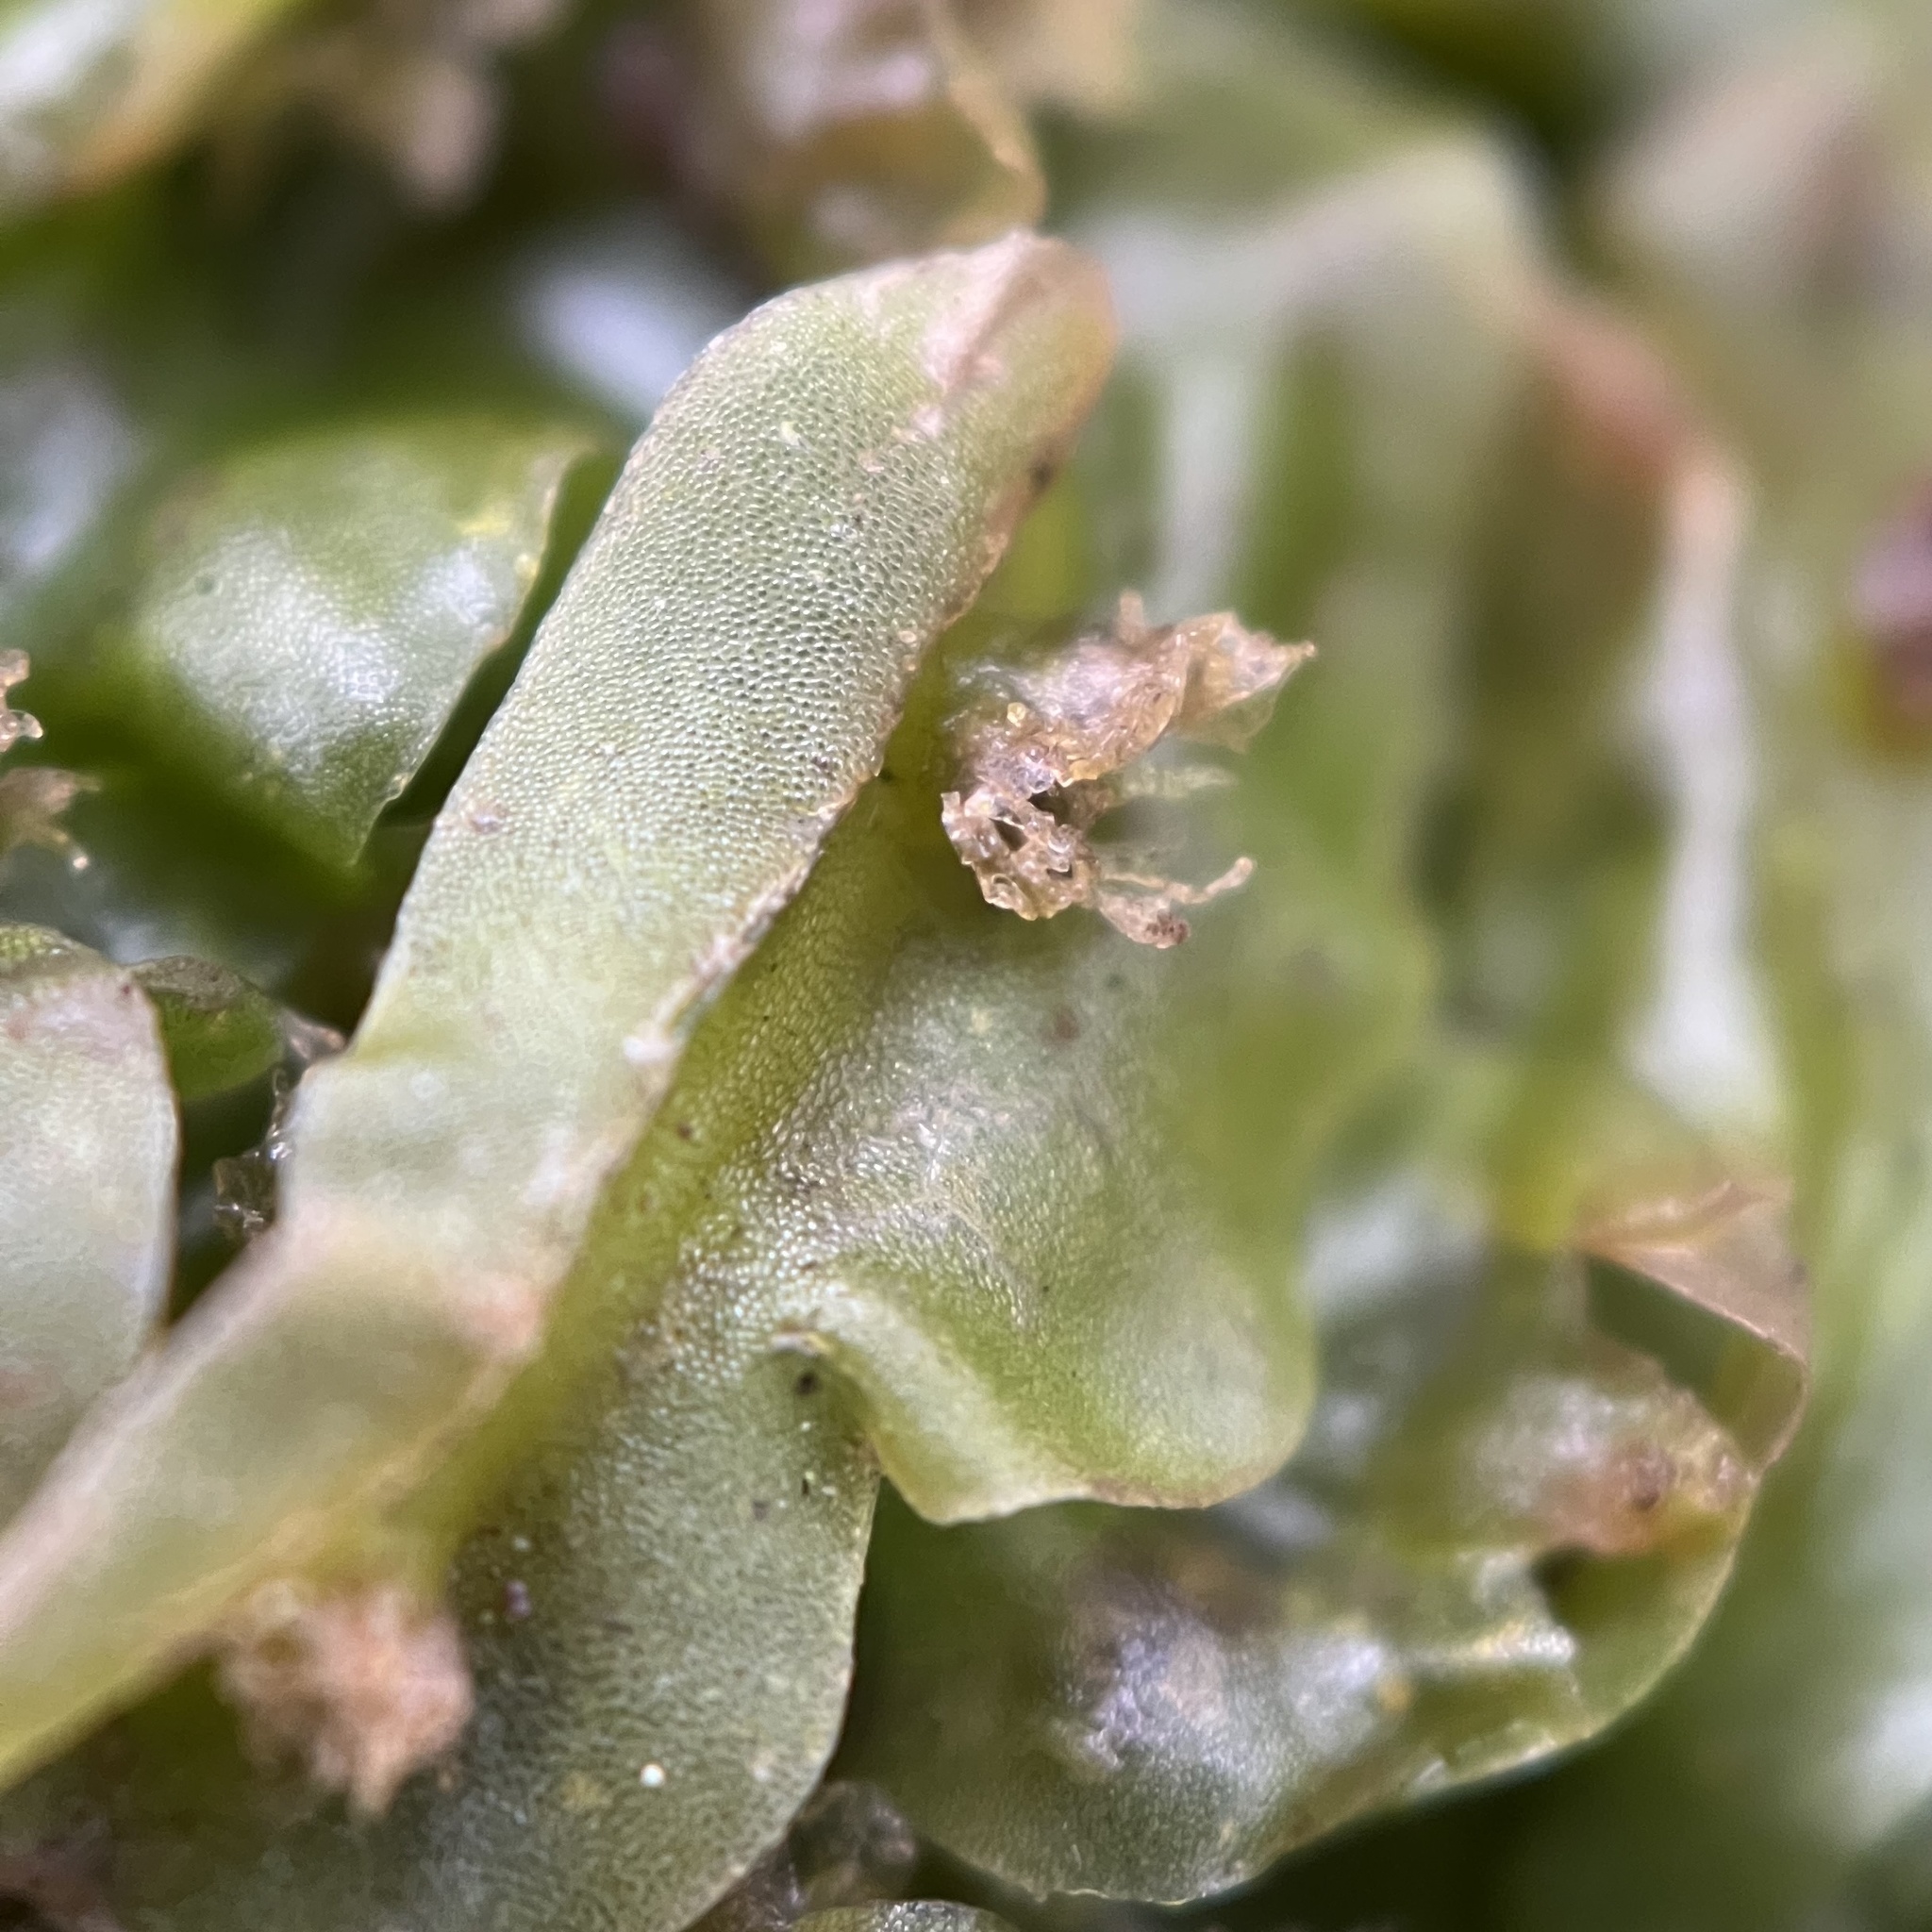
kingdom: Plantae
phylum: Marchantiophyta
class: Jungermanniopsida
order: Pallaviciniales
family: Pallaviciniaceae
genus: Pallavicinia
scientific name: Pallavicinia lyellii
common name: Veilwort
